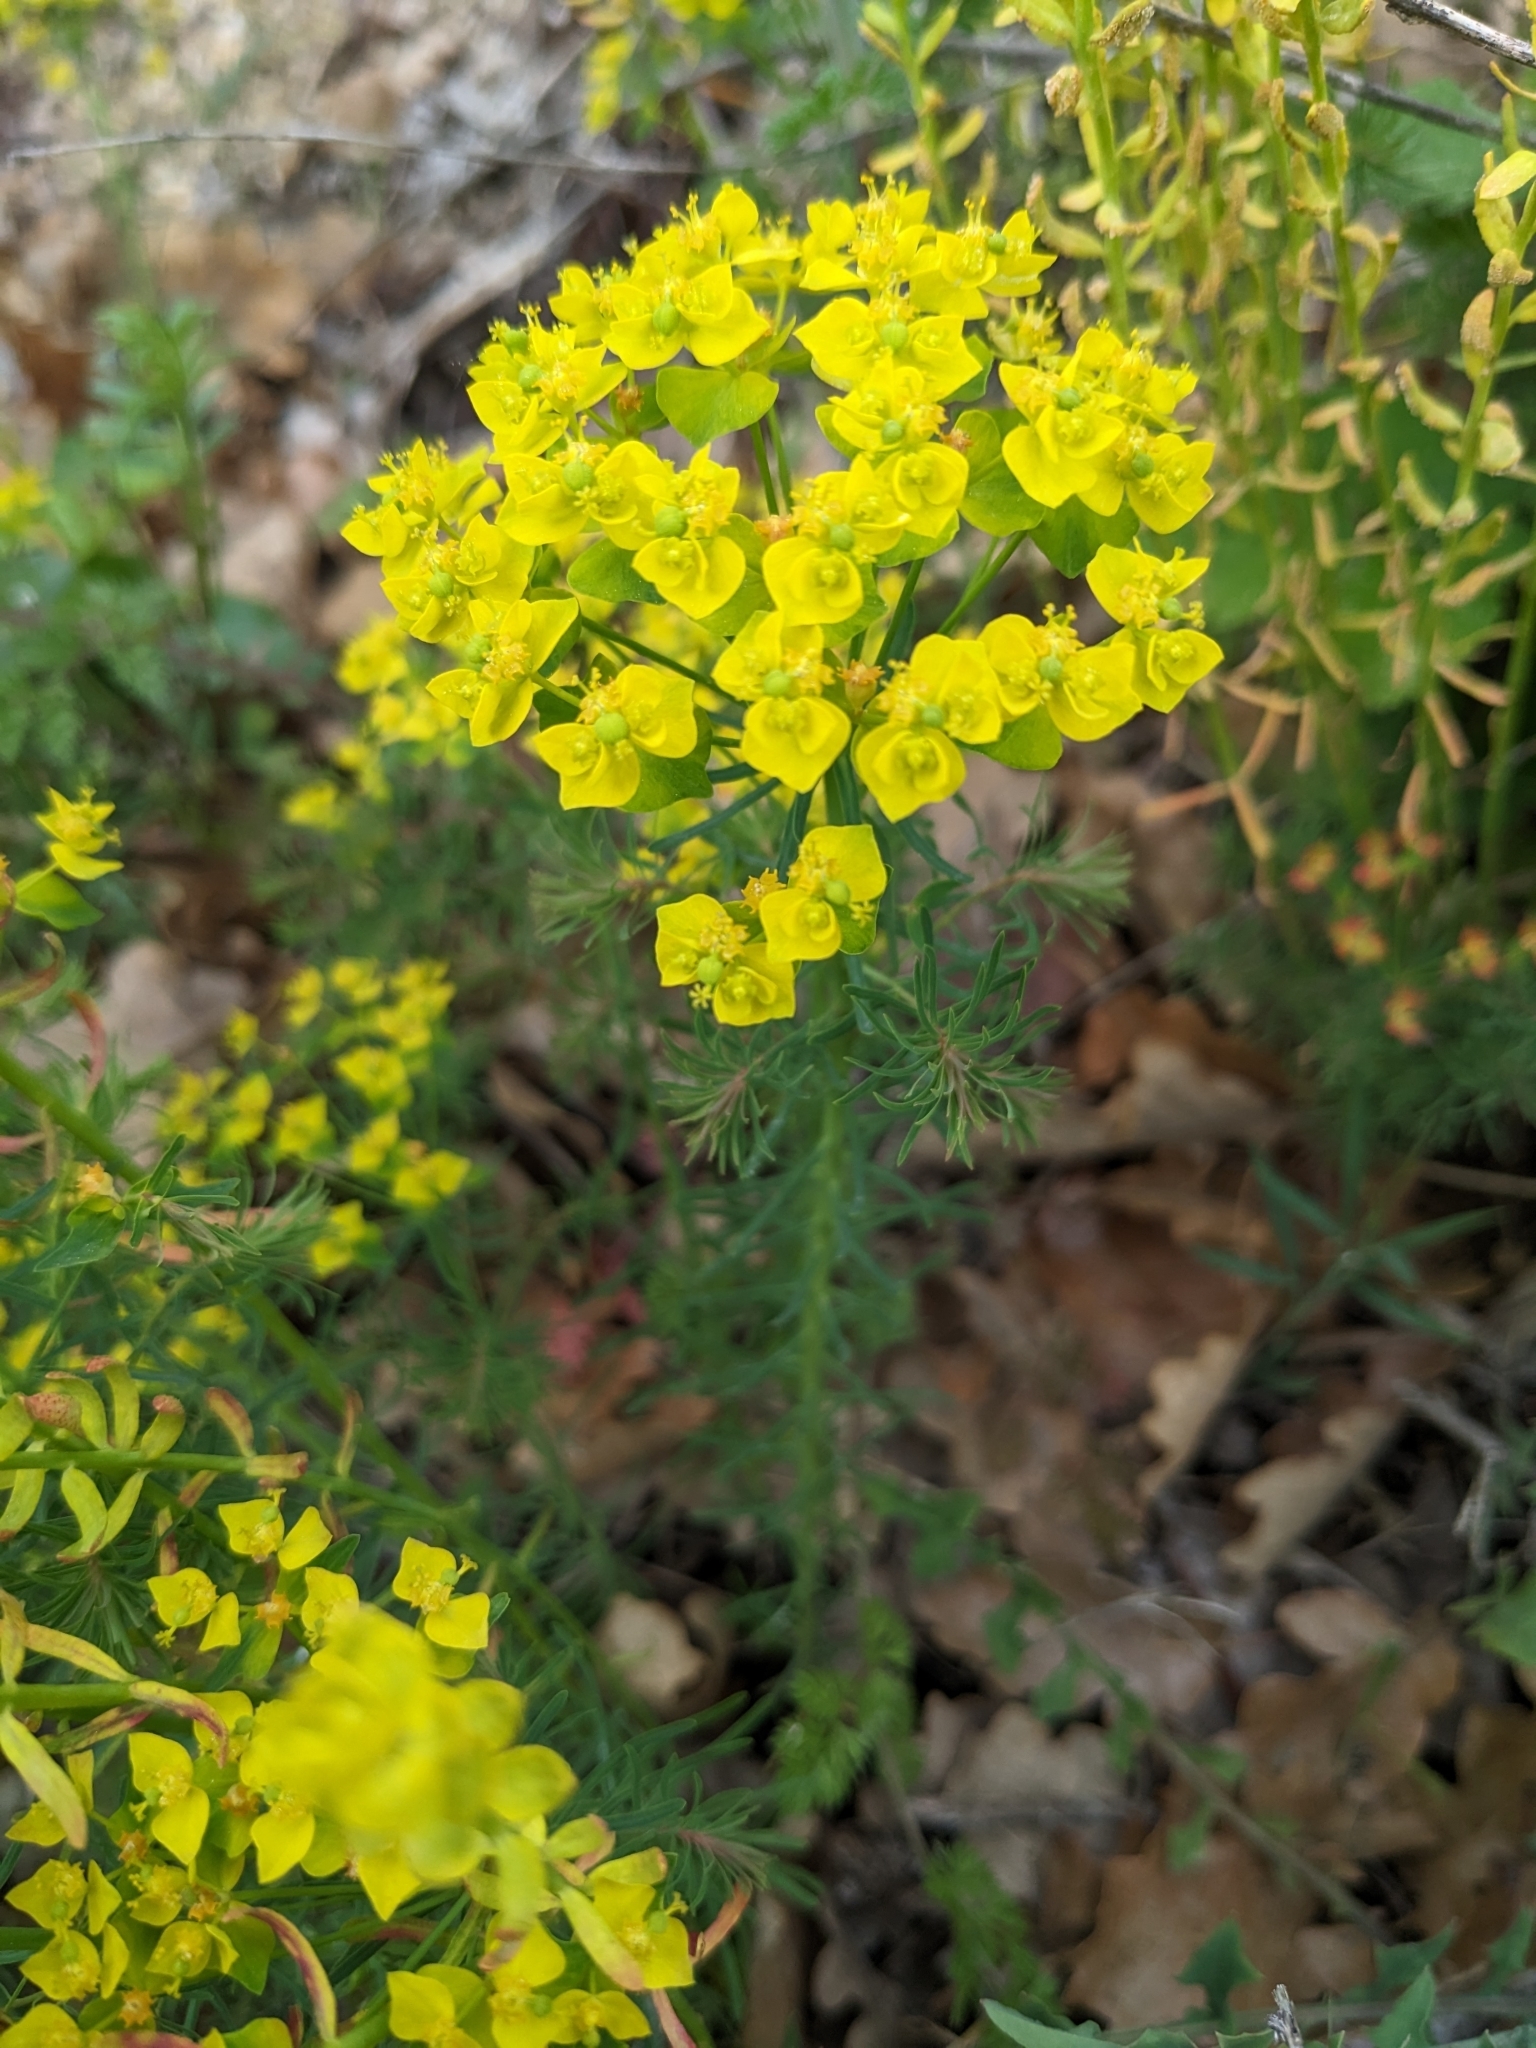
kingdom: Plantae
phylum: Tracheophyta
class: Magnoliopsida
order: Malpighiales
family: Euphorbiaceae
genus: Euphorbia
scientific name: Euphorbia cyparissias
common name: Cypress spurge
